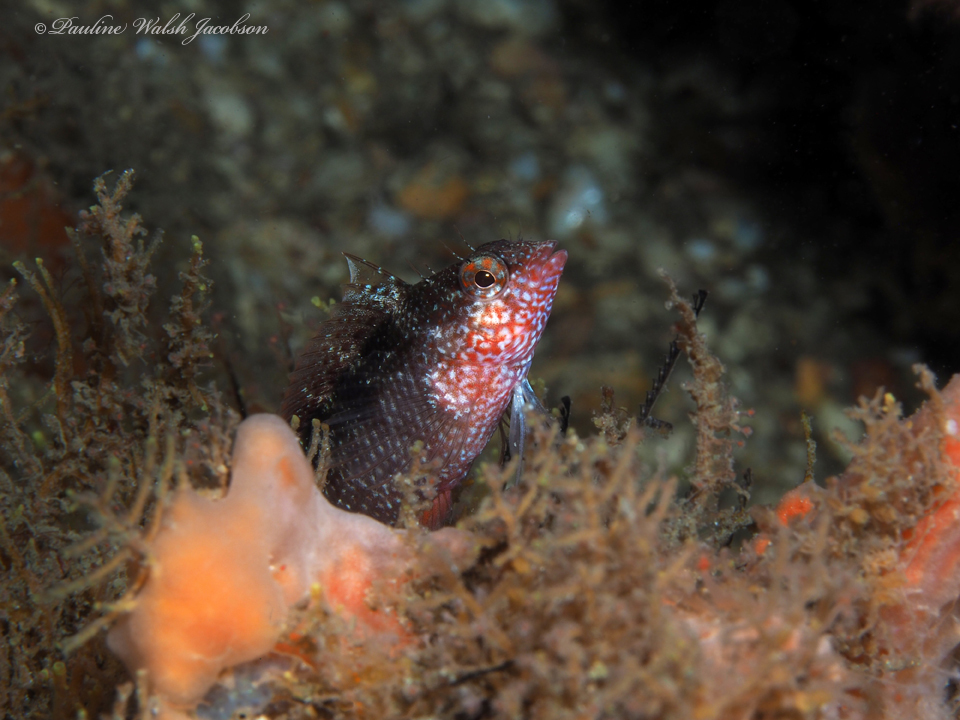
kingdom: Animalia
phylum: Chordata
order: Perciformes
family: Labrisomidae
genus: Malacoctenus
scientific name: Malacoctenus macropus
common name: Rosy blenny
